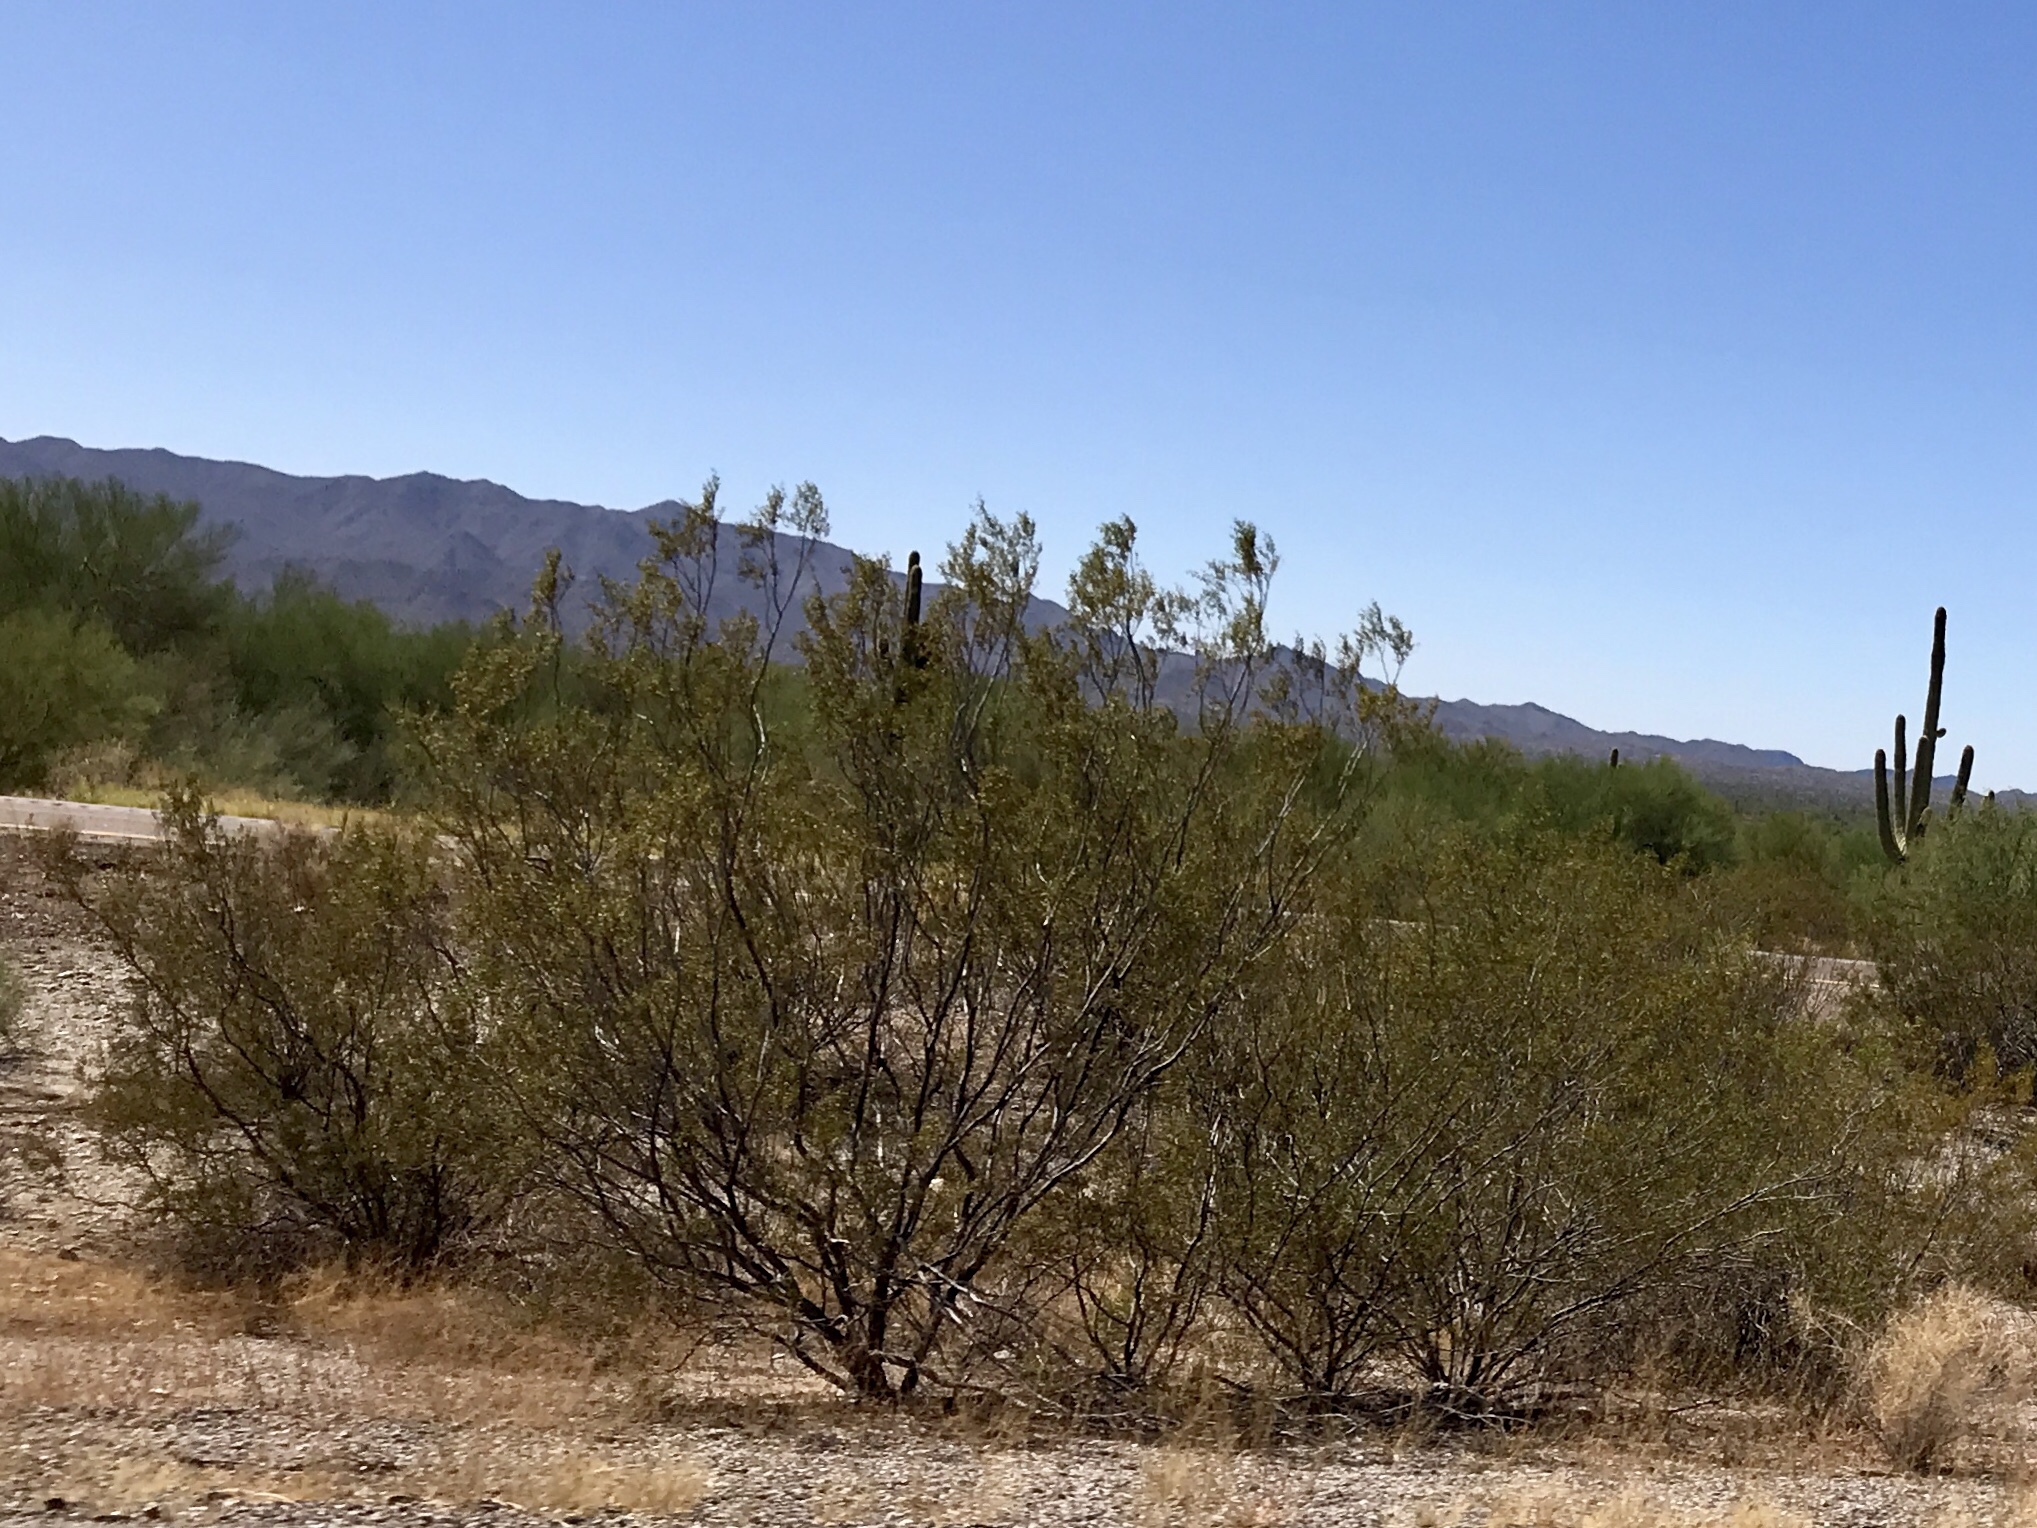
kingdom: Plantae
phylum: Tracheophyta
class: Magnoliopsida
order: Zygophyllales
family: Zygophyllaceae
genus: Larrea
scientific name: Larrea tridentata
